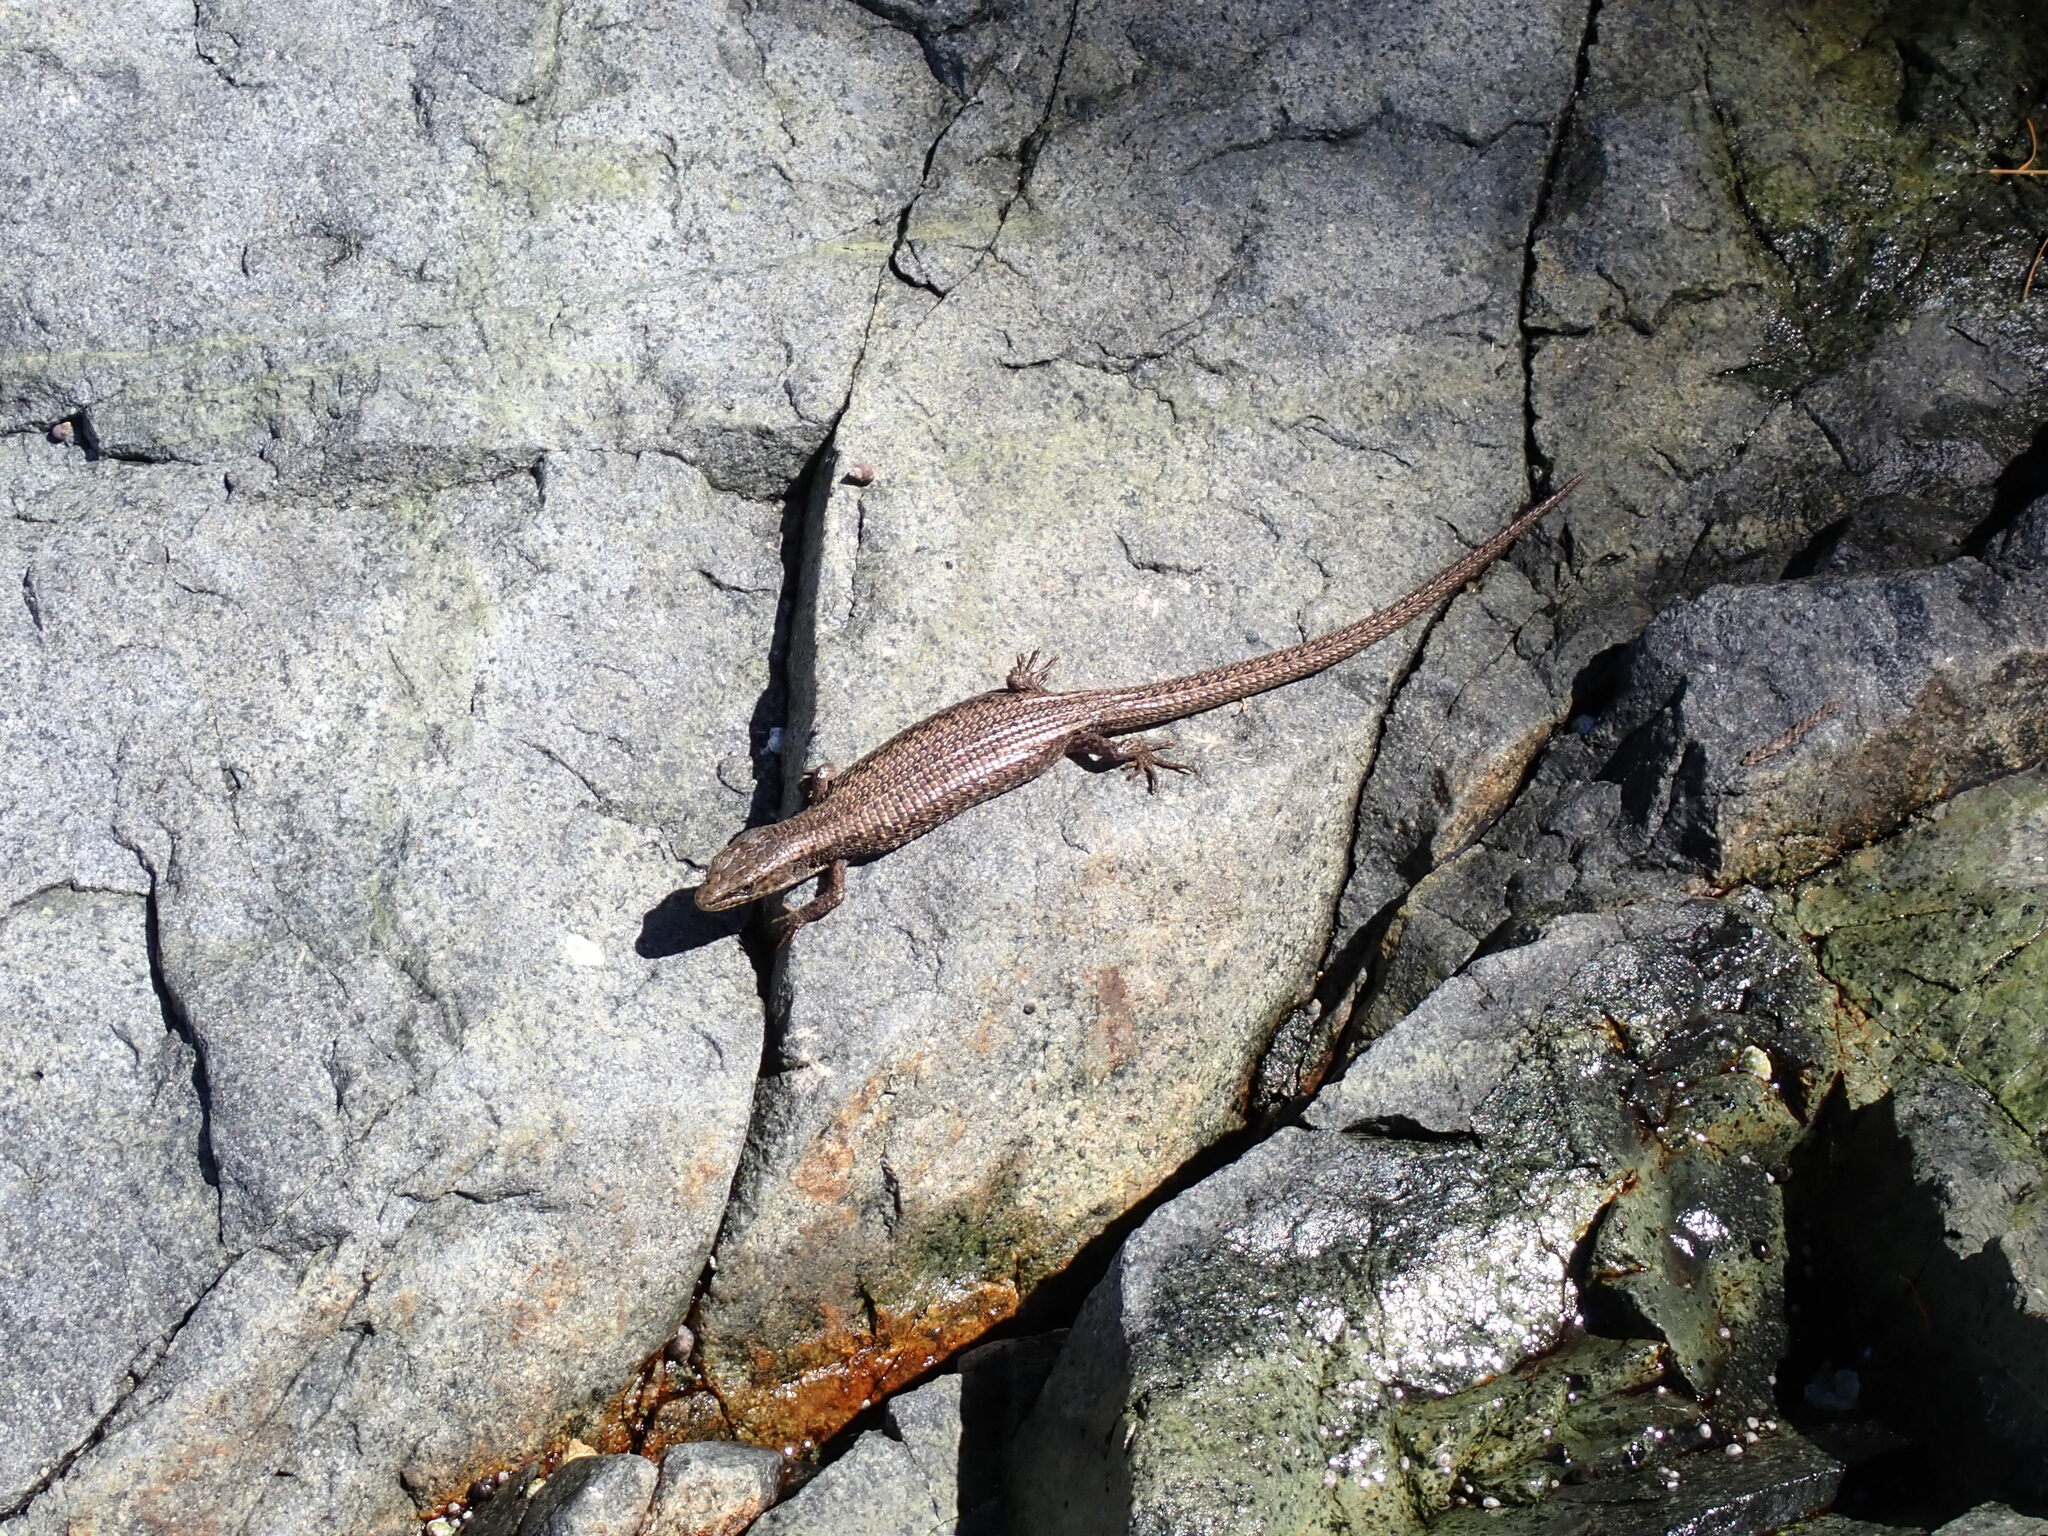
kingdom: Animalia
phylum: Chordata
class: Squamata
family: Anguidae
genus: Elgaria
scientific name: Elgaria coerulea
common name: Northern alligator lizard
